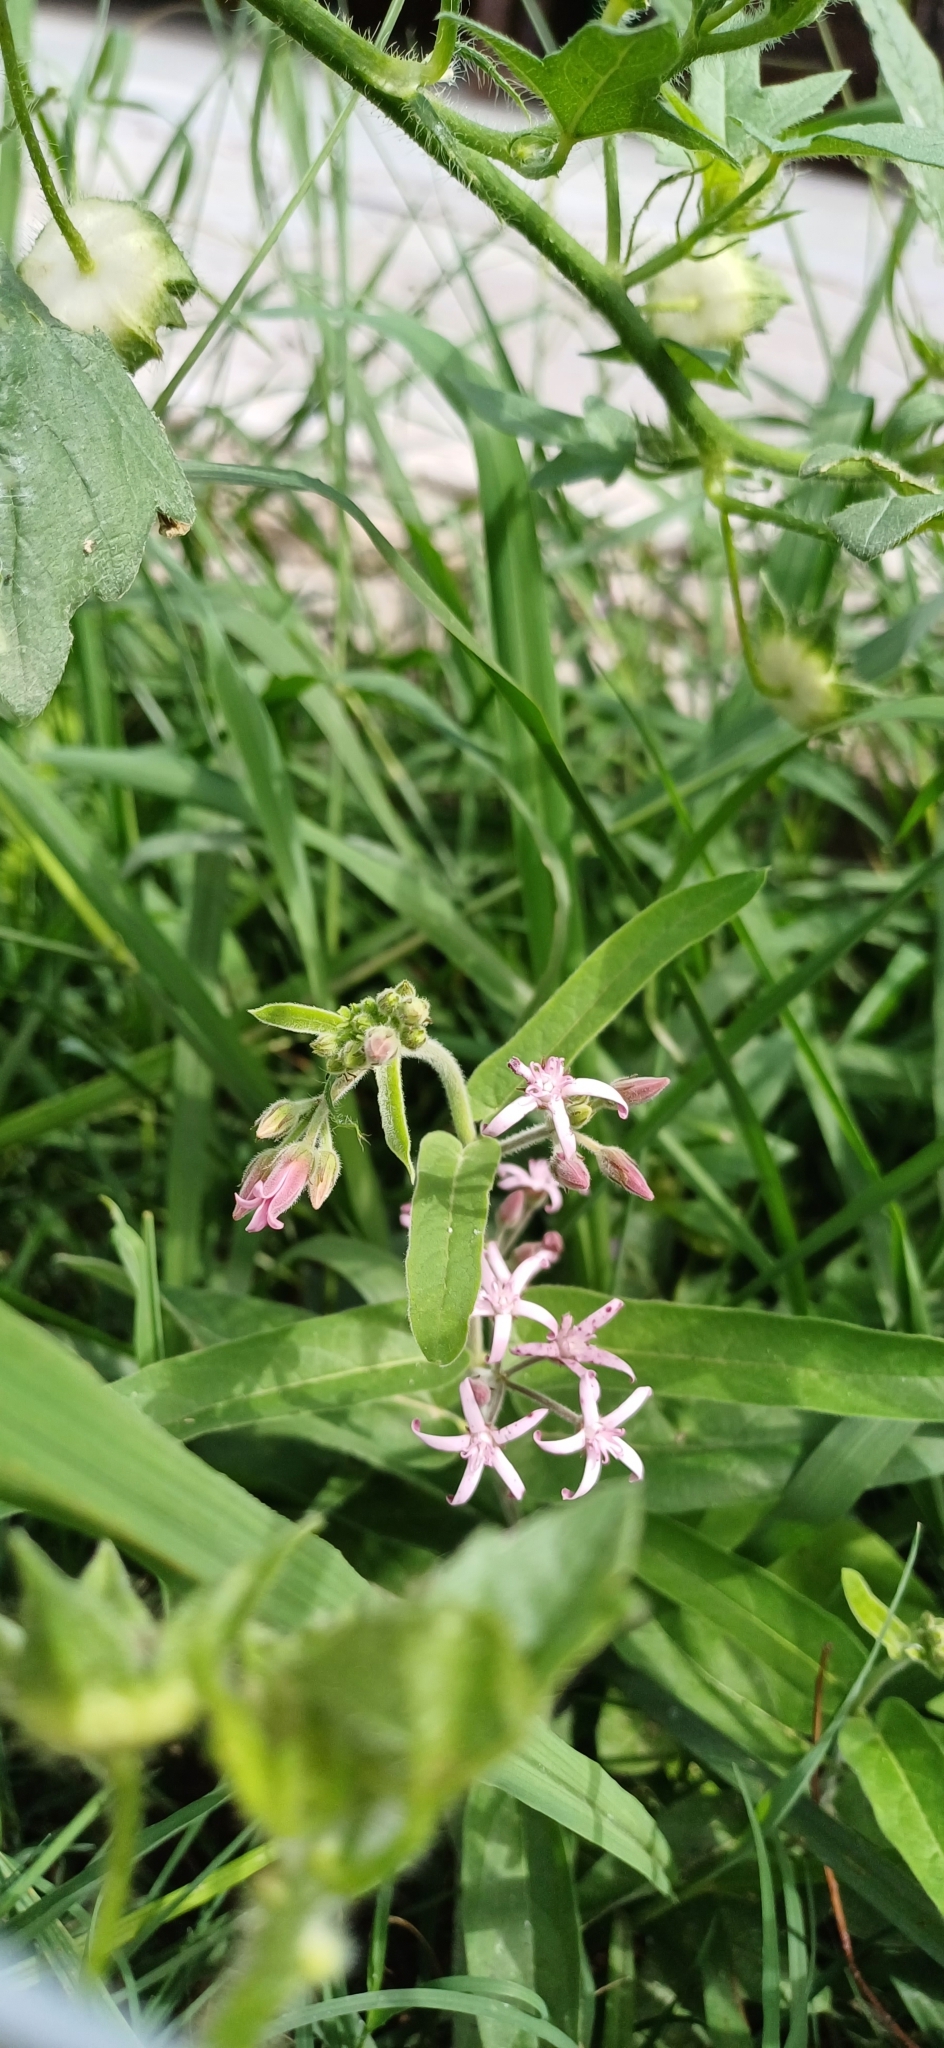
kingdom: Plantae
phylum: Tracheophyta
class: Magnoliopsida
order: Gentianales
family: Apocynaceae
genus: Oxypetalum
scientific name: Oxypetalum solanoides
